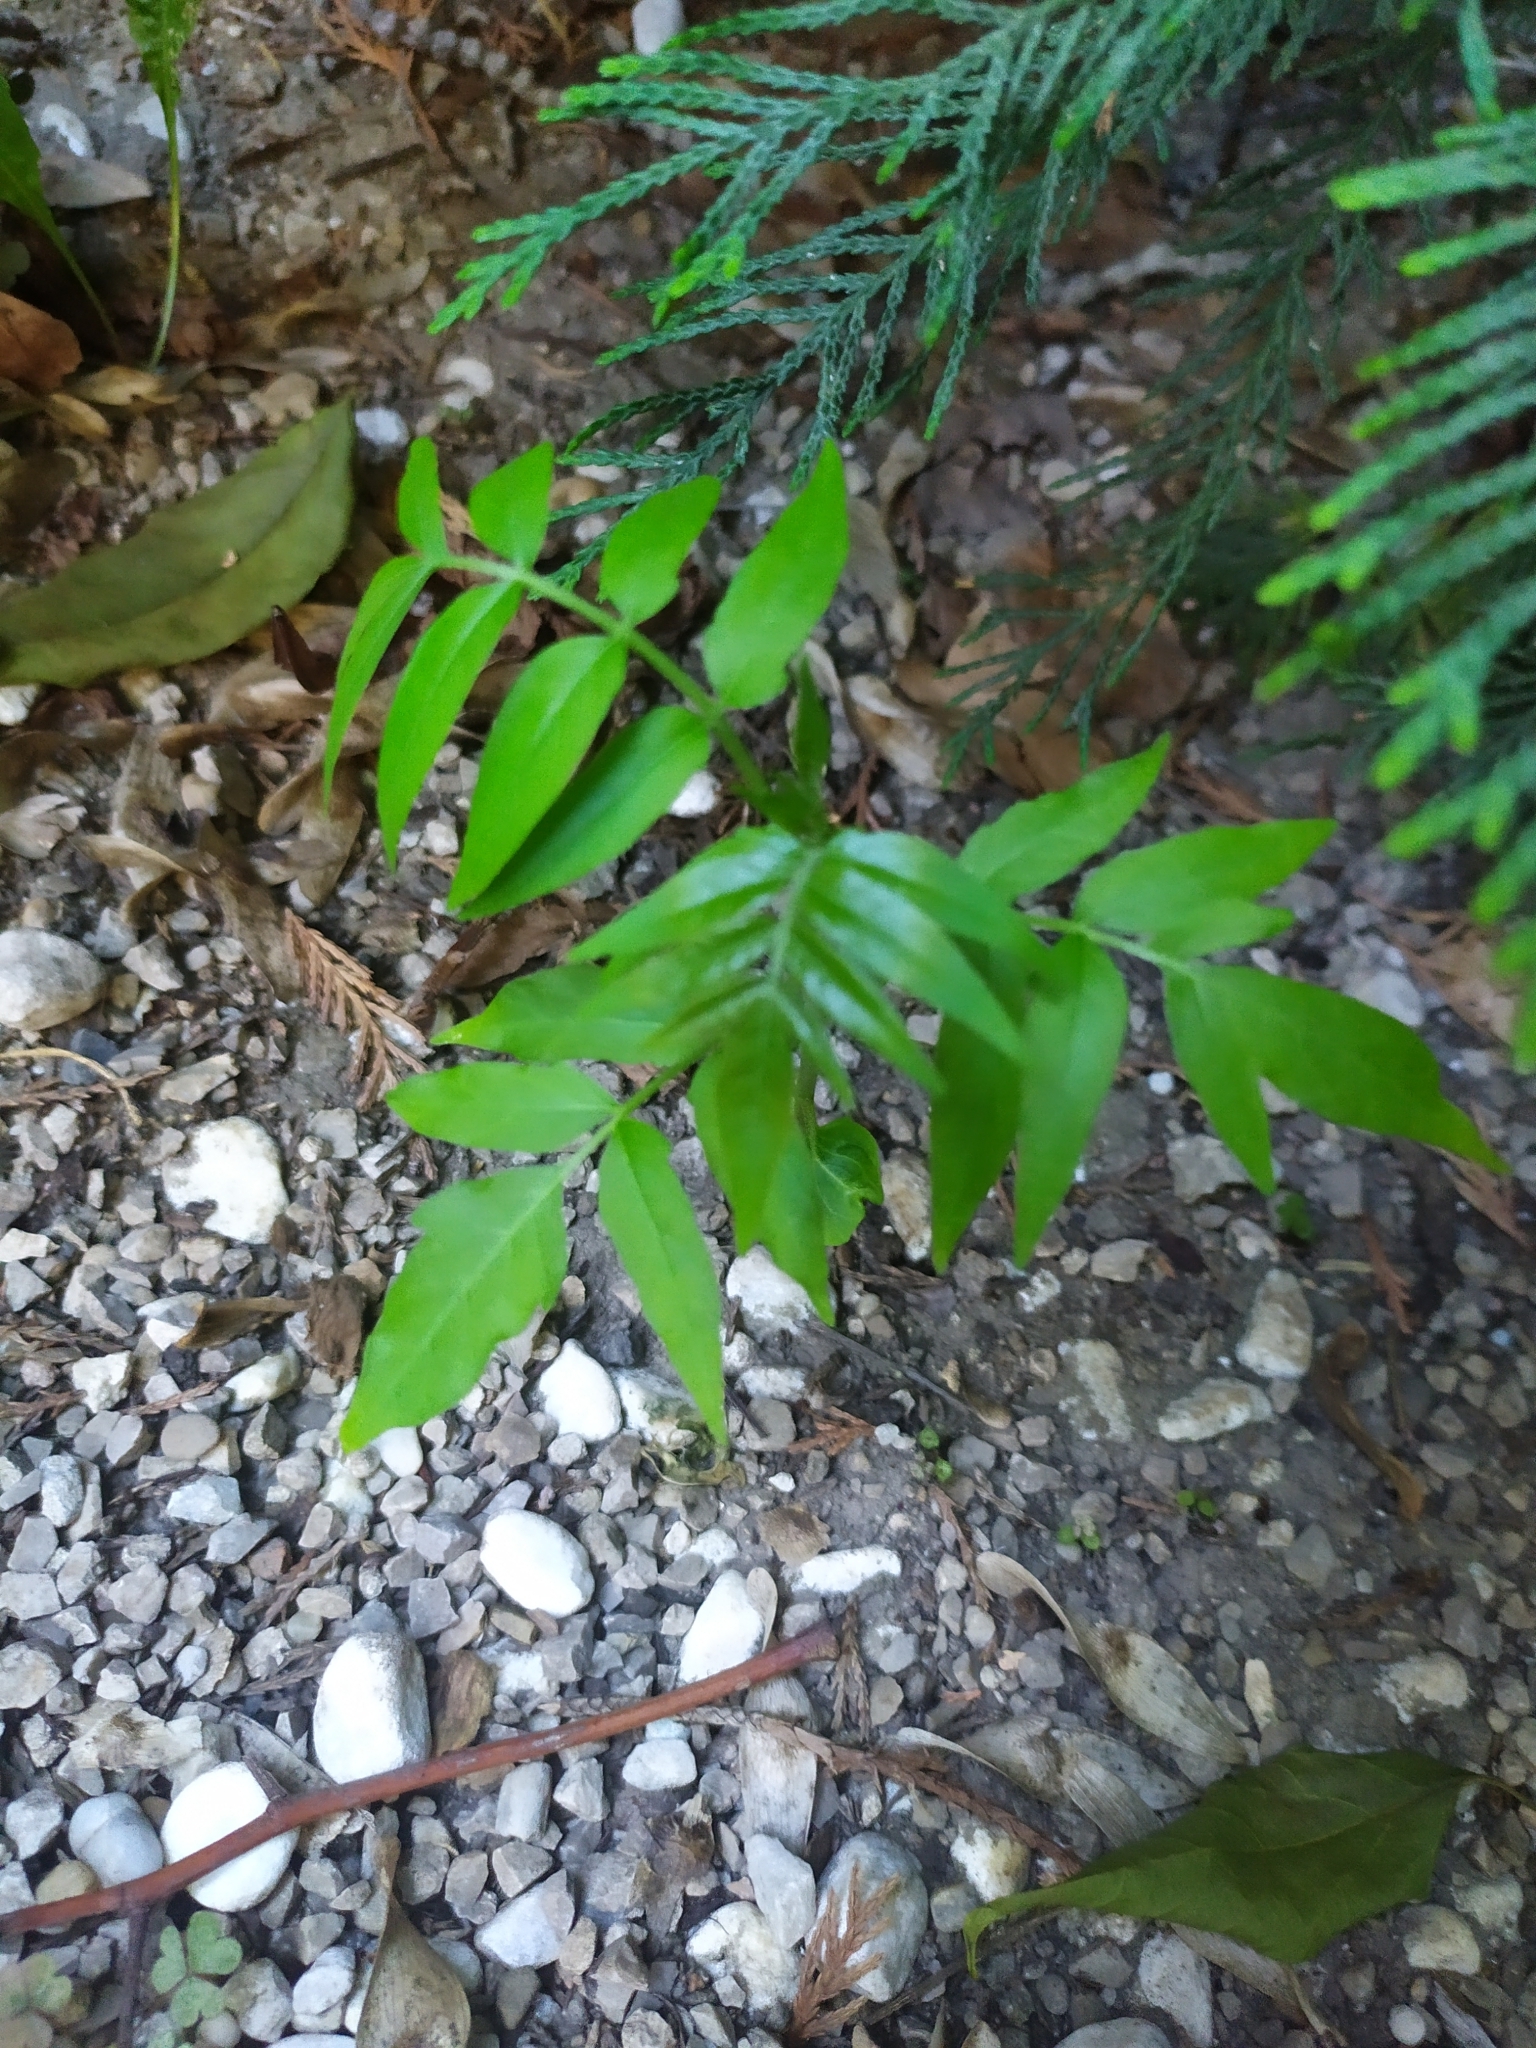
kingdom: Plantae
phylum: Tracheophyta
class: Magnoliopsida
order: Sapindales
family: Simaroubaceae
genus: Ailanthus
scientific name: Ailanthus altissima
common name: Tree-of-heaven
